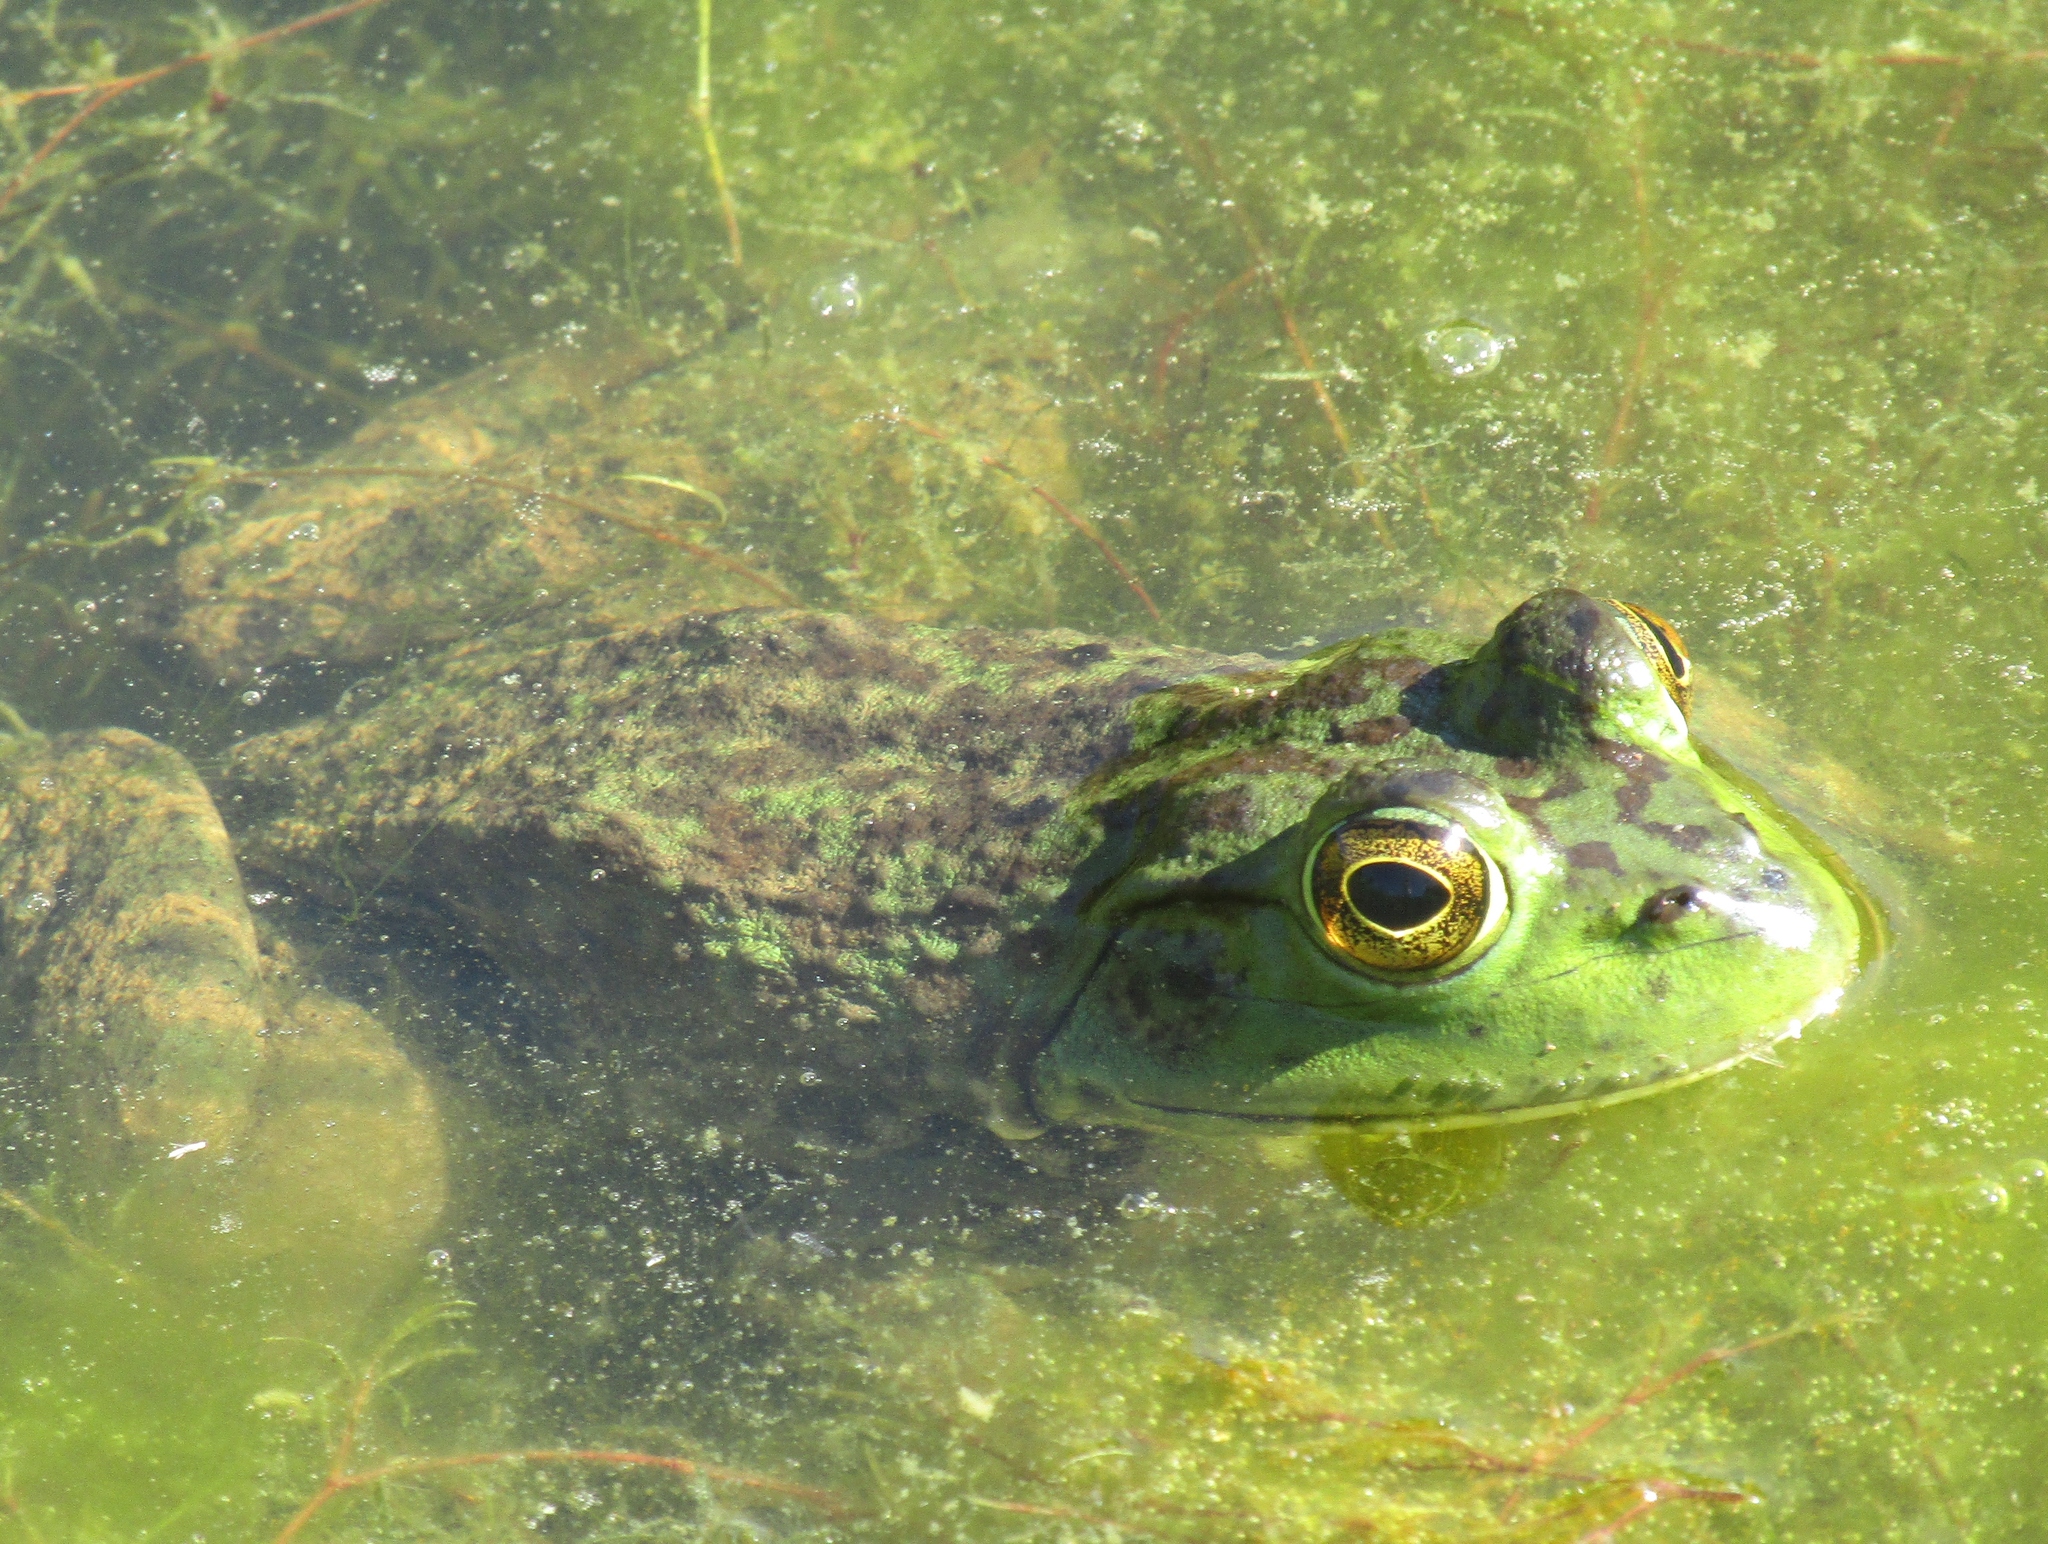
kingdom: Animalia
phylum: Chordata
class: Amphibia
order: Anura
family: Ranidae
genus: Lithobates
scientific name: Lithobates catesbeianus
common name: American bullfrog
